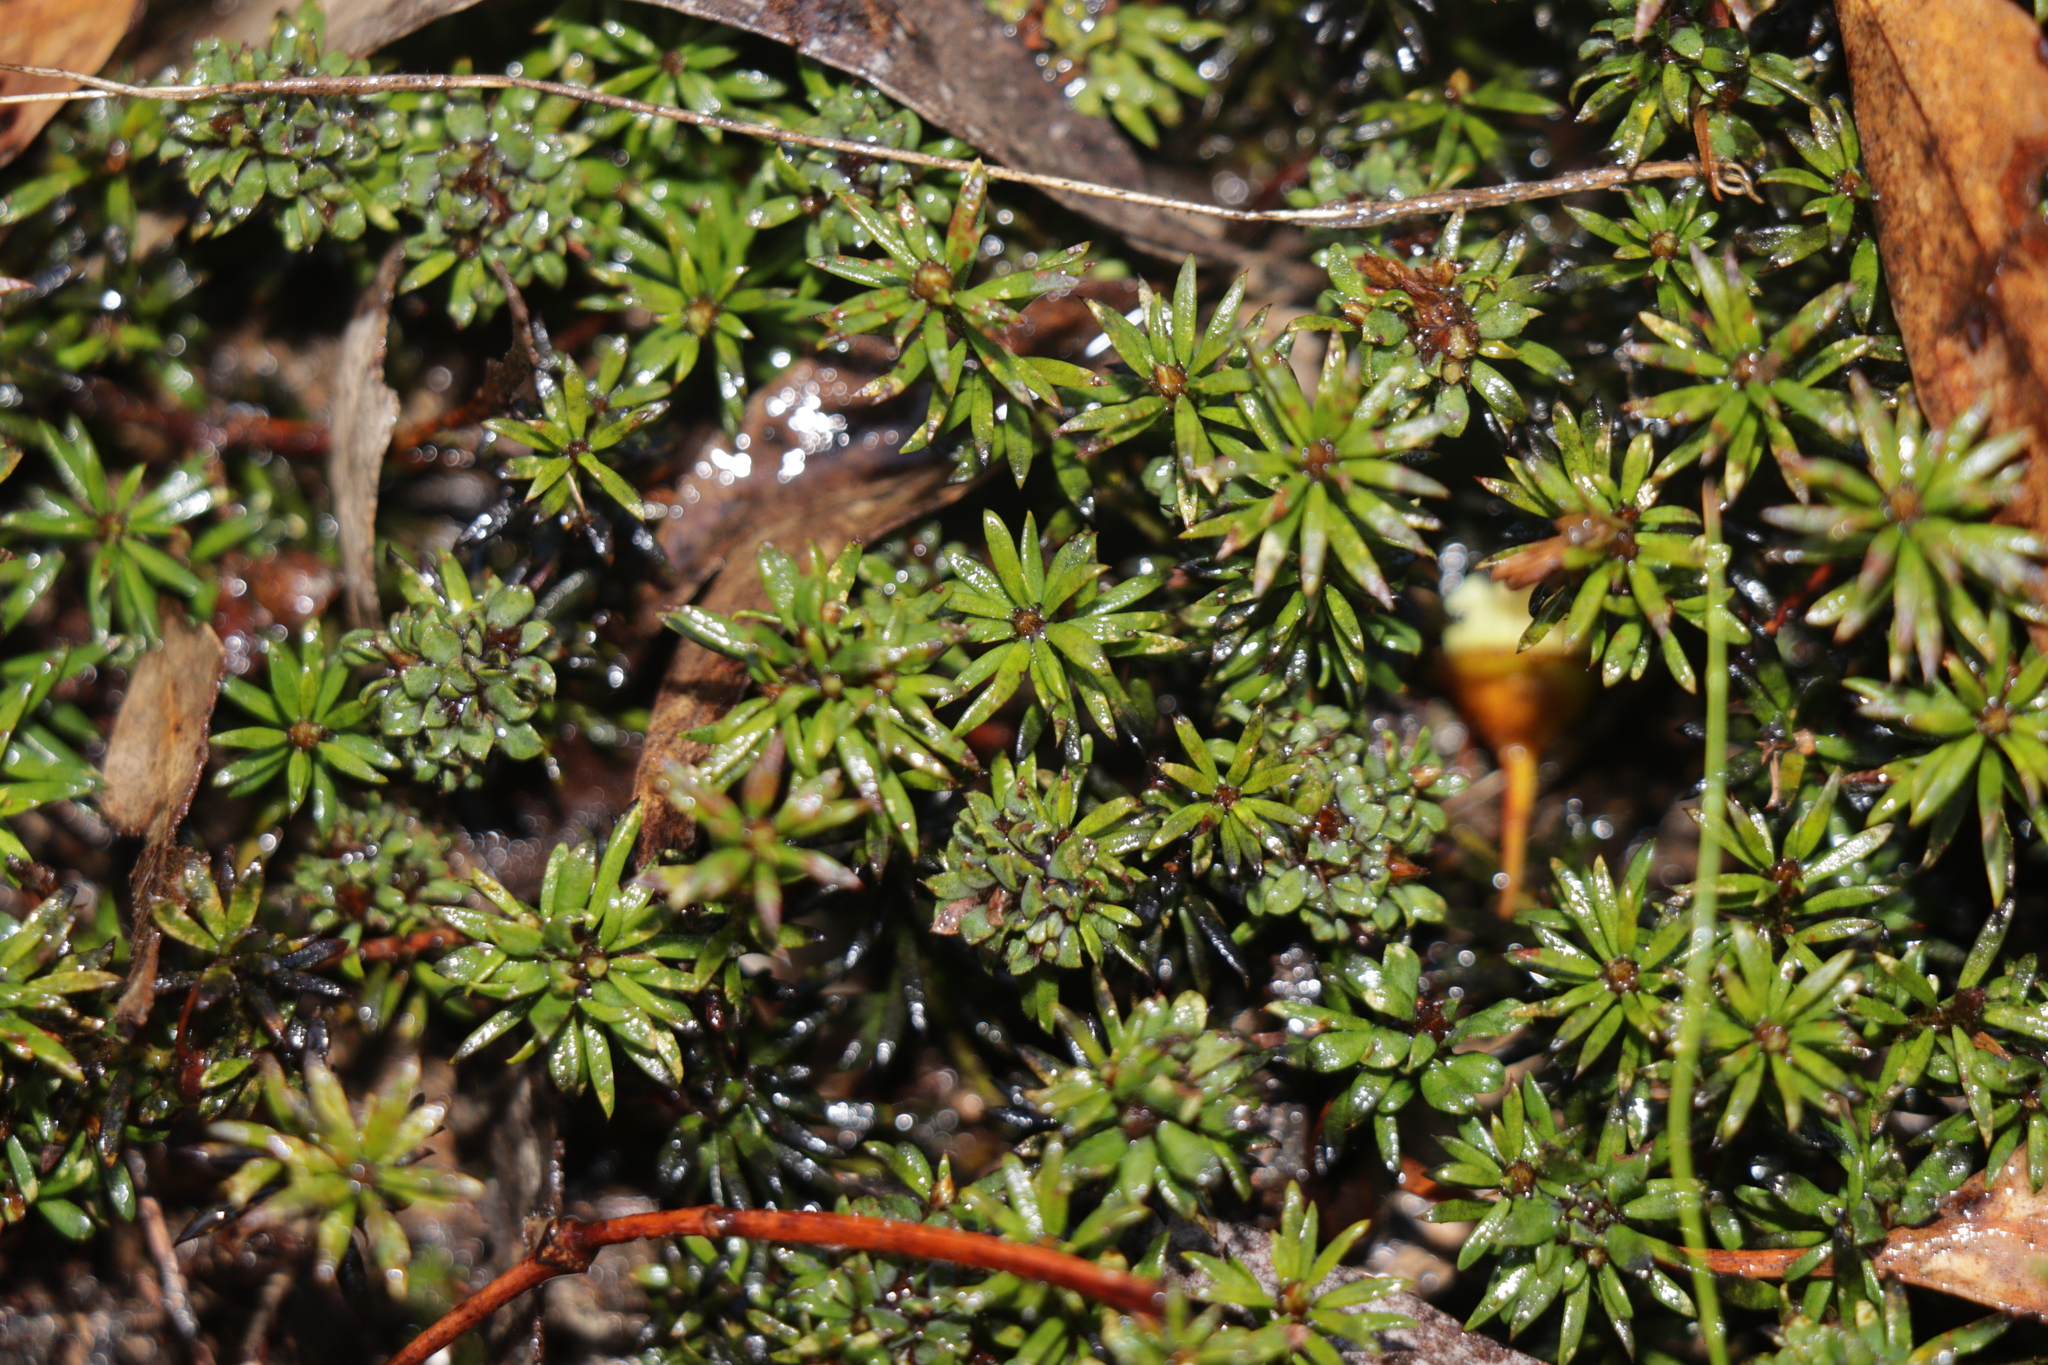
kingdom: Plantae
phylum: Tracheophyta
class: Magnoliopsida
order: Fabales
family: Fabaceae
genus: Pultenaea
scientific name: Pultenaea pedunculata
